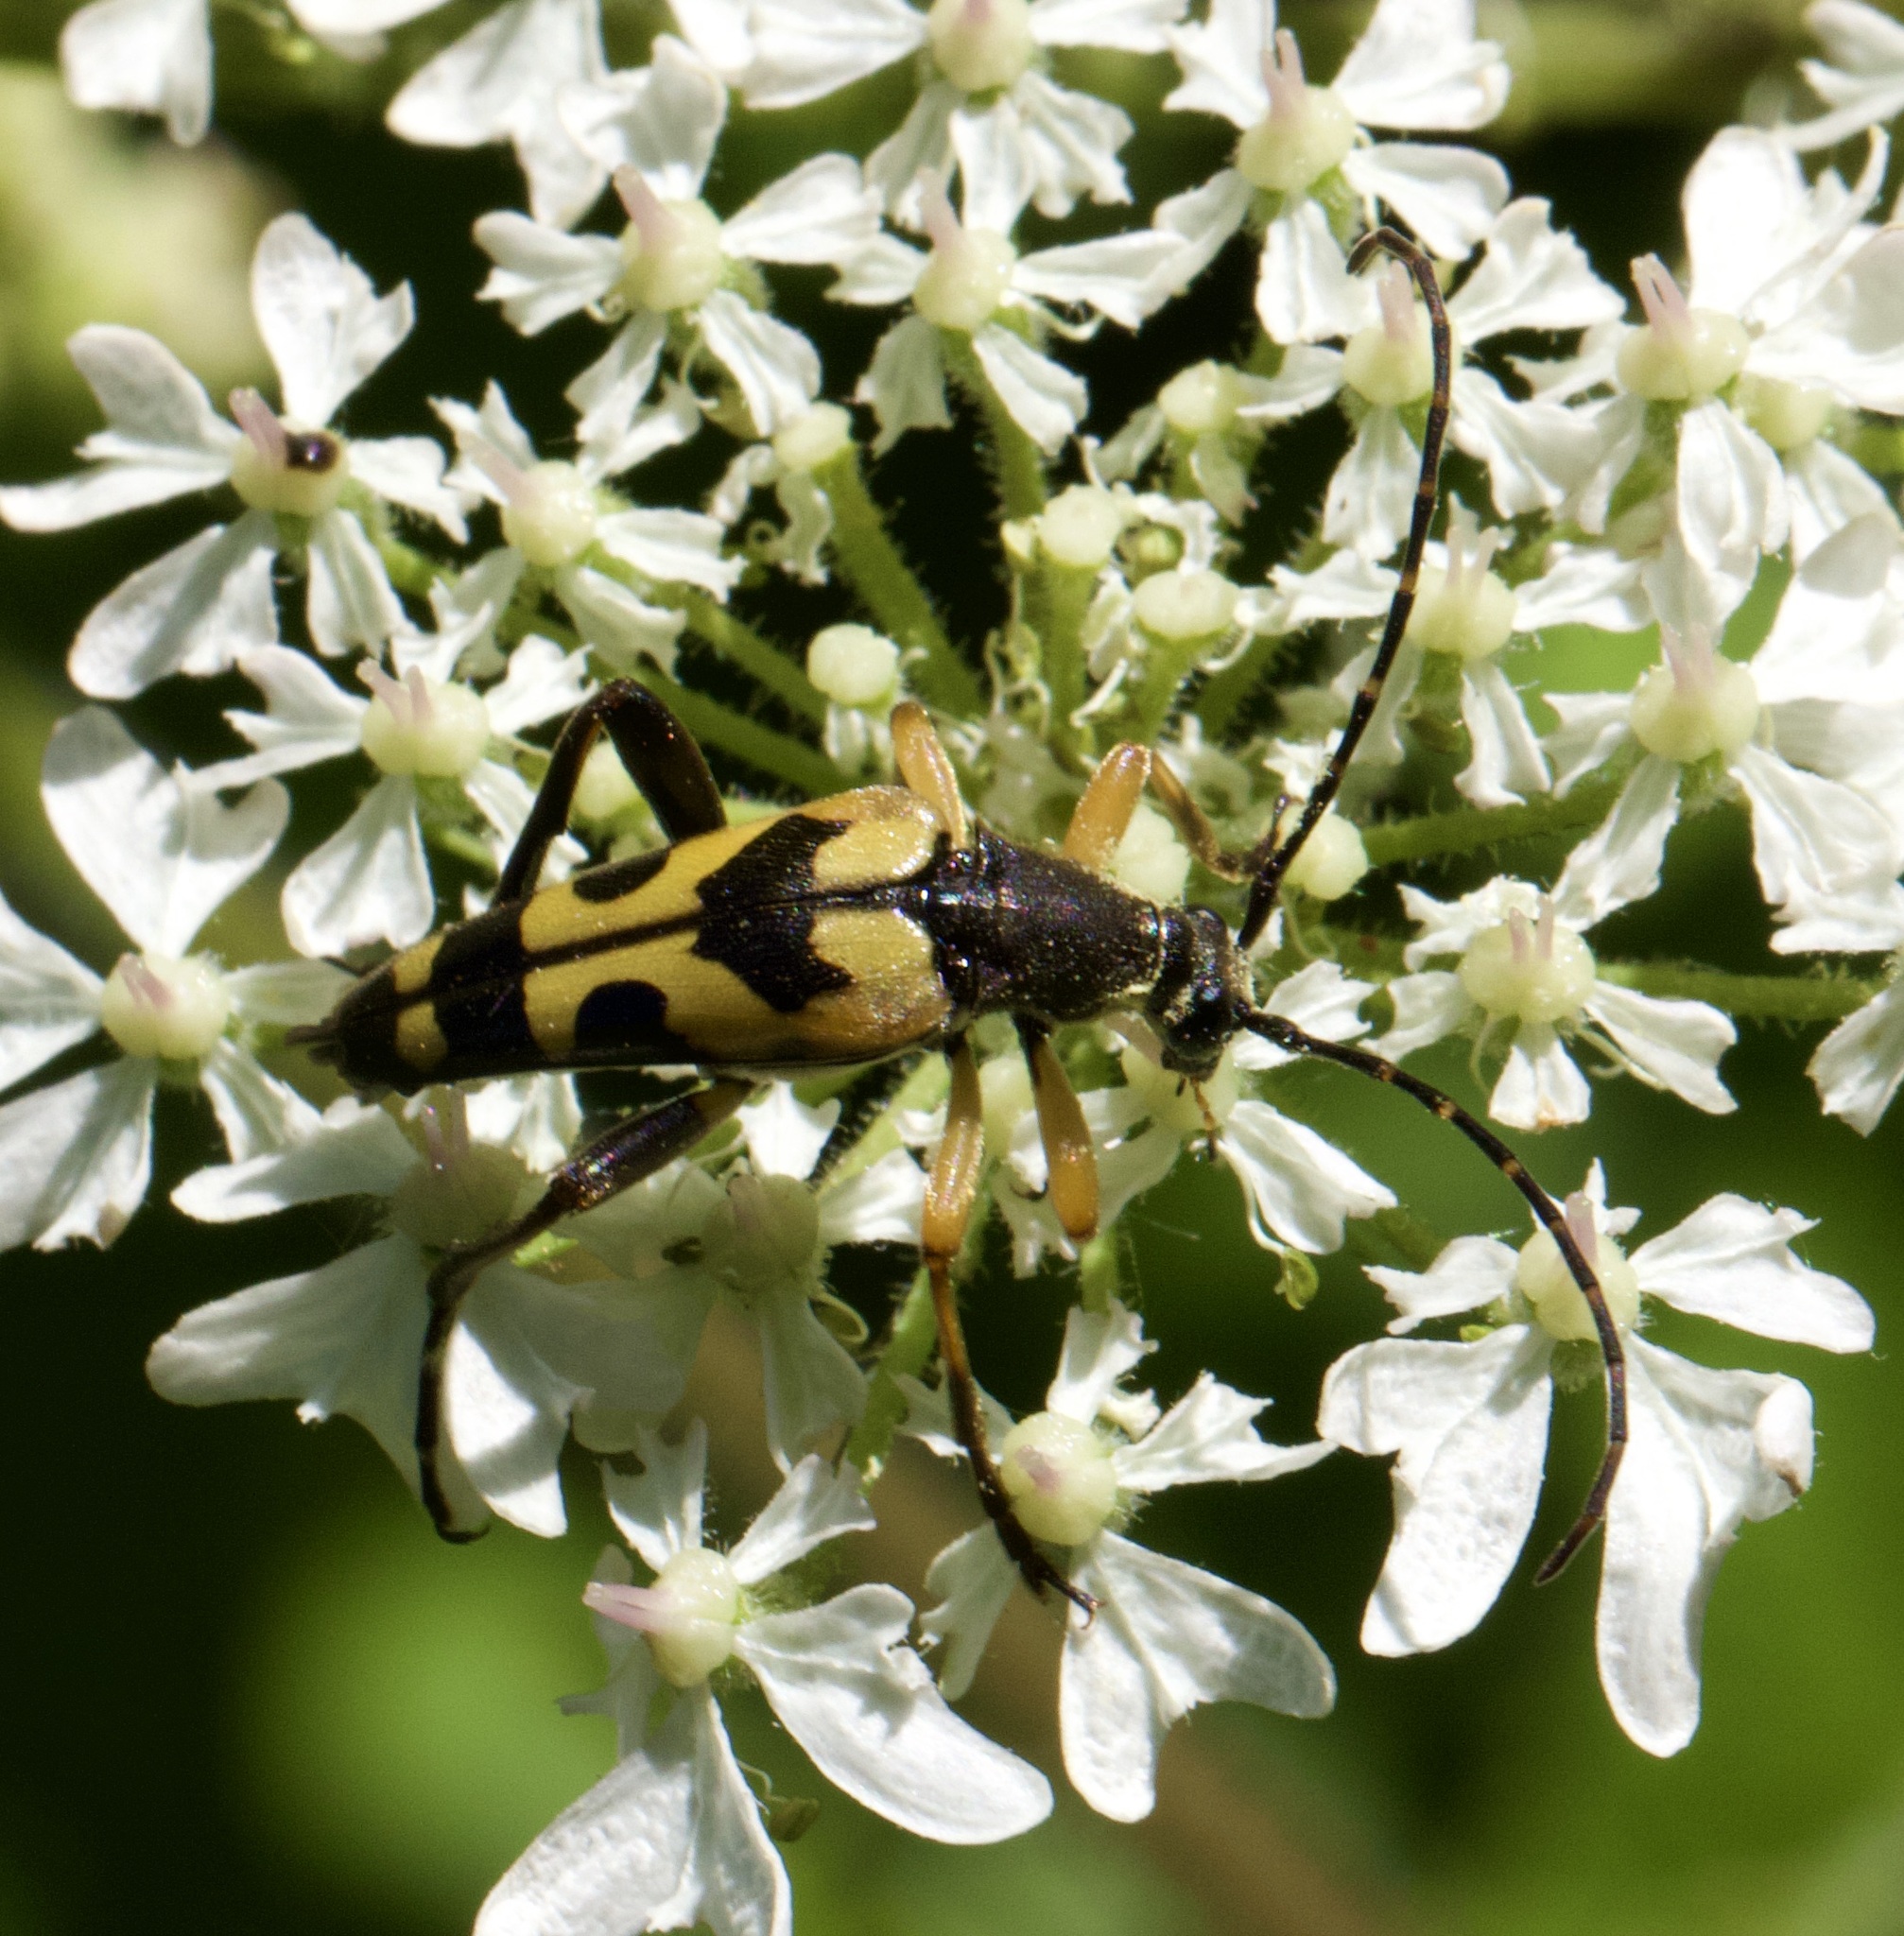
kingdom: Animalia
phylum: Arthropoda
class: Insecta
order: Coleoptera
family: Cerambycidae
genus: Rutpela
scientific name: Rutpela maculata
